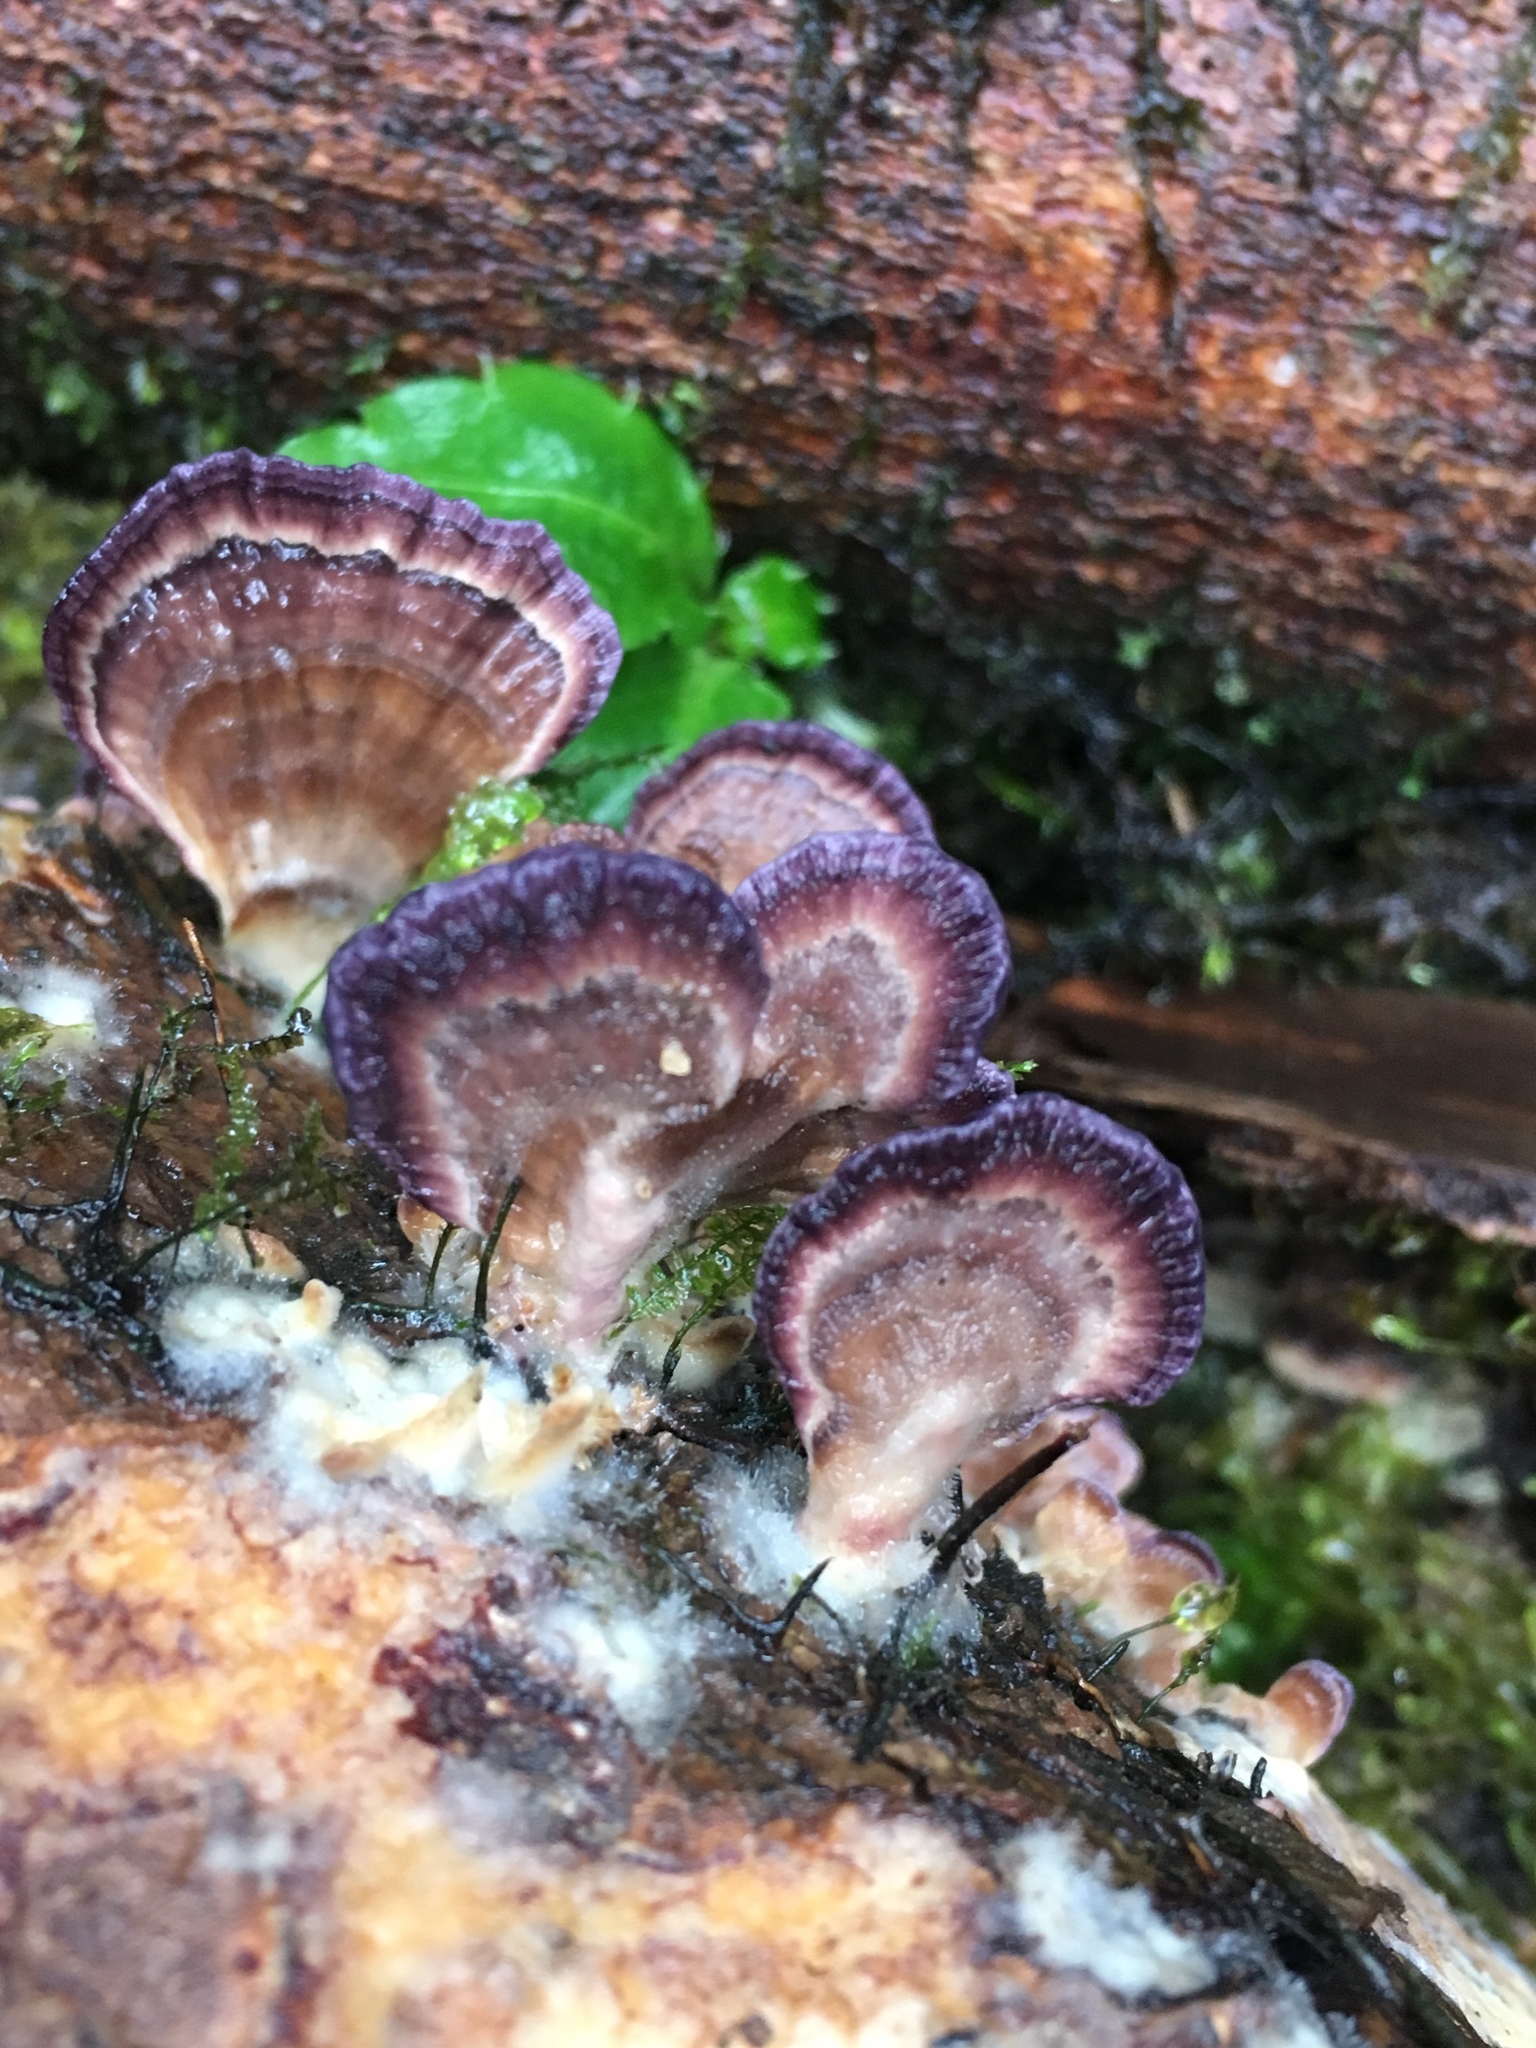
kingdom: Fungi
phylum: Basidiomycota
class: Agaricomycetes
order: Hymenochaetales
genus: Trichaptum
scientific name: Trichaptum biforme
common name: Violet-toothed polypore
